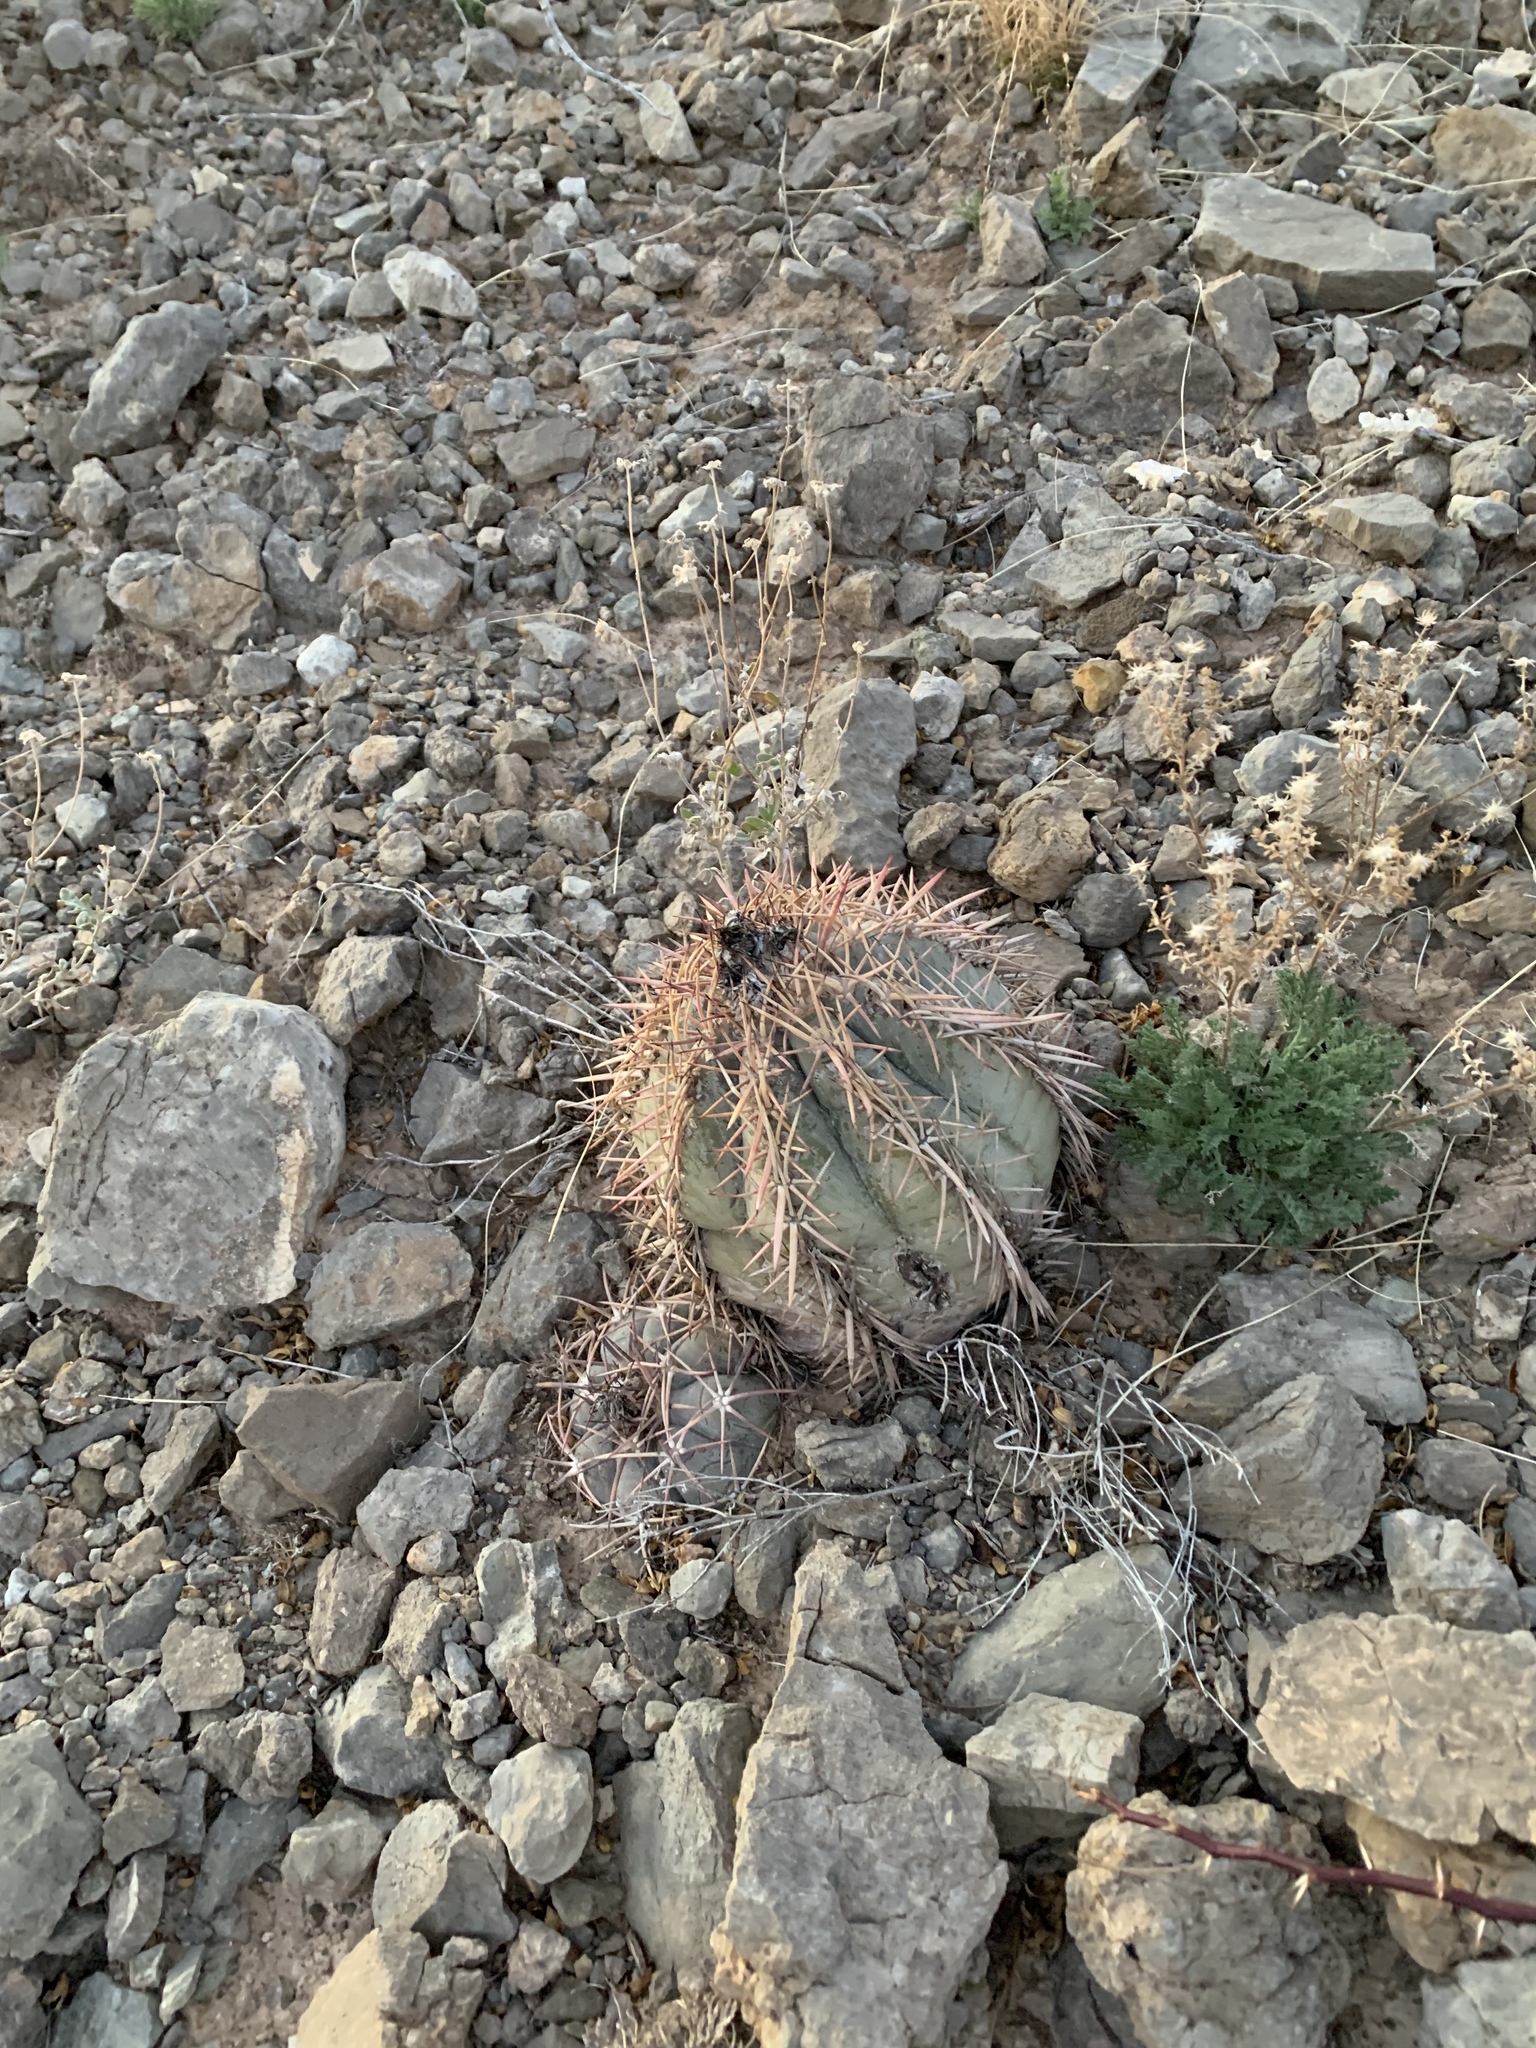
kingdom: Plantae
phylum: Tracheophyta
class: Magnoliopsida
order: Caryophyllales
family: Cactaceae
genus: Echinocactus
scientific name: Echinocactus horizonthalonius
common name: Devilshead
